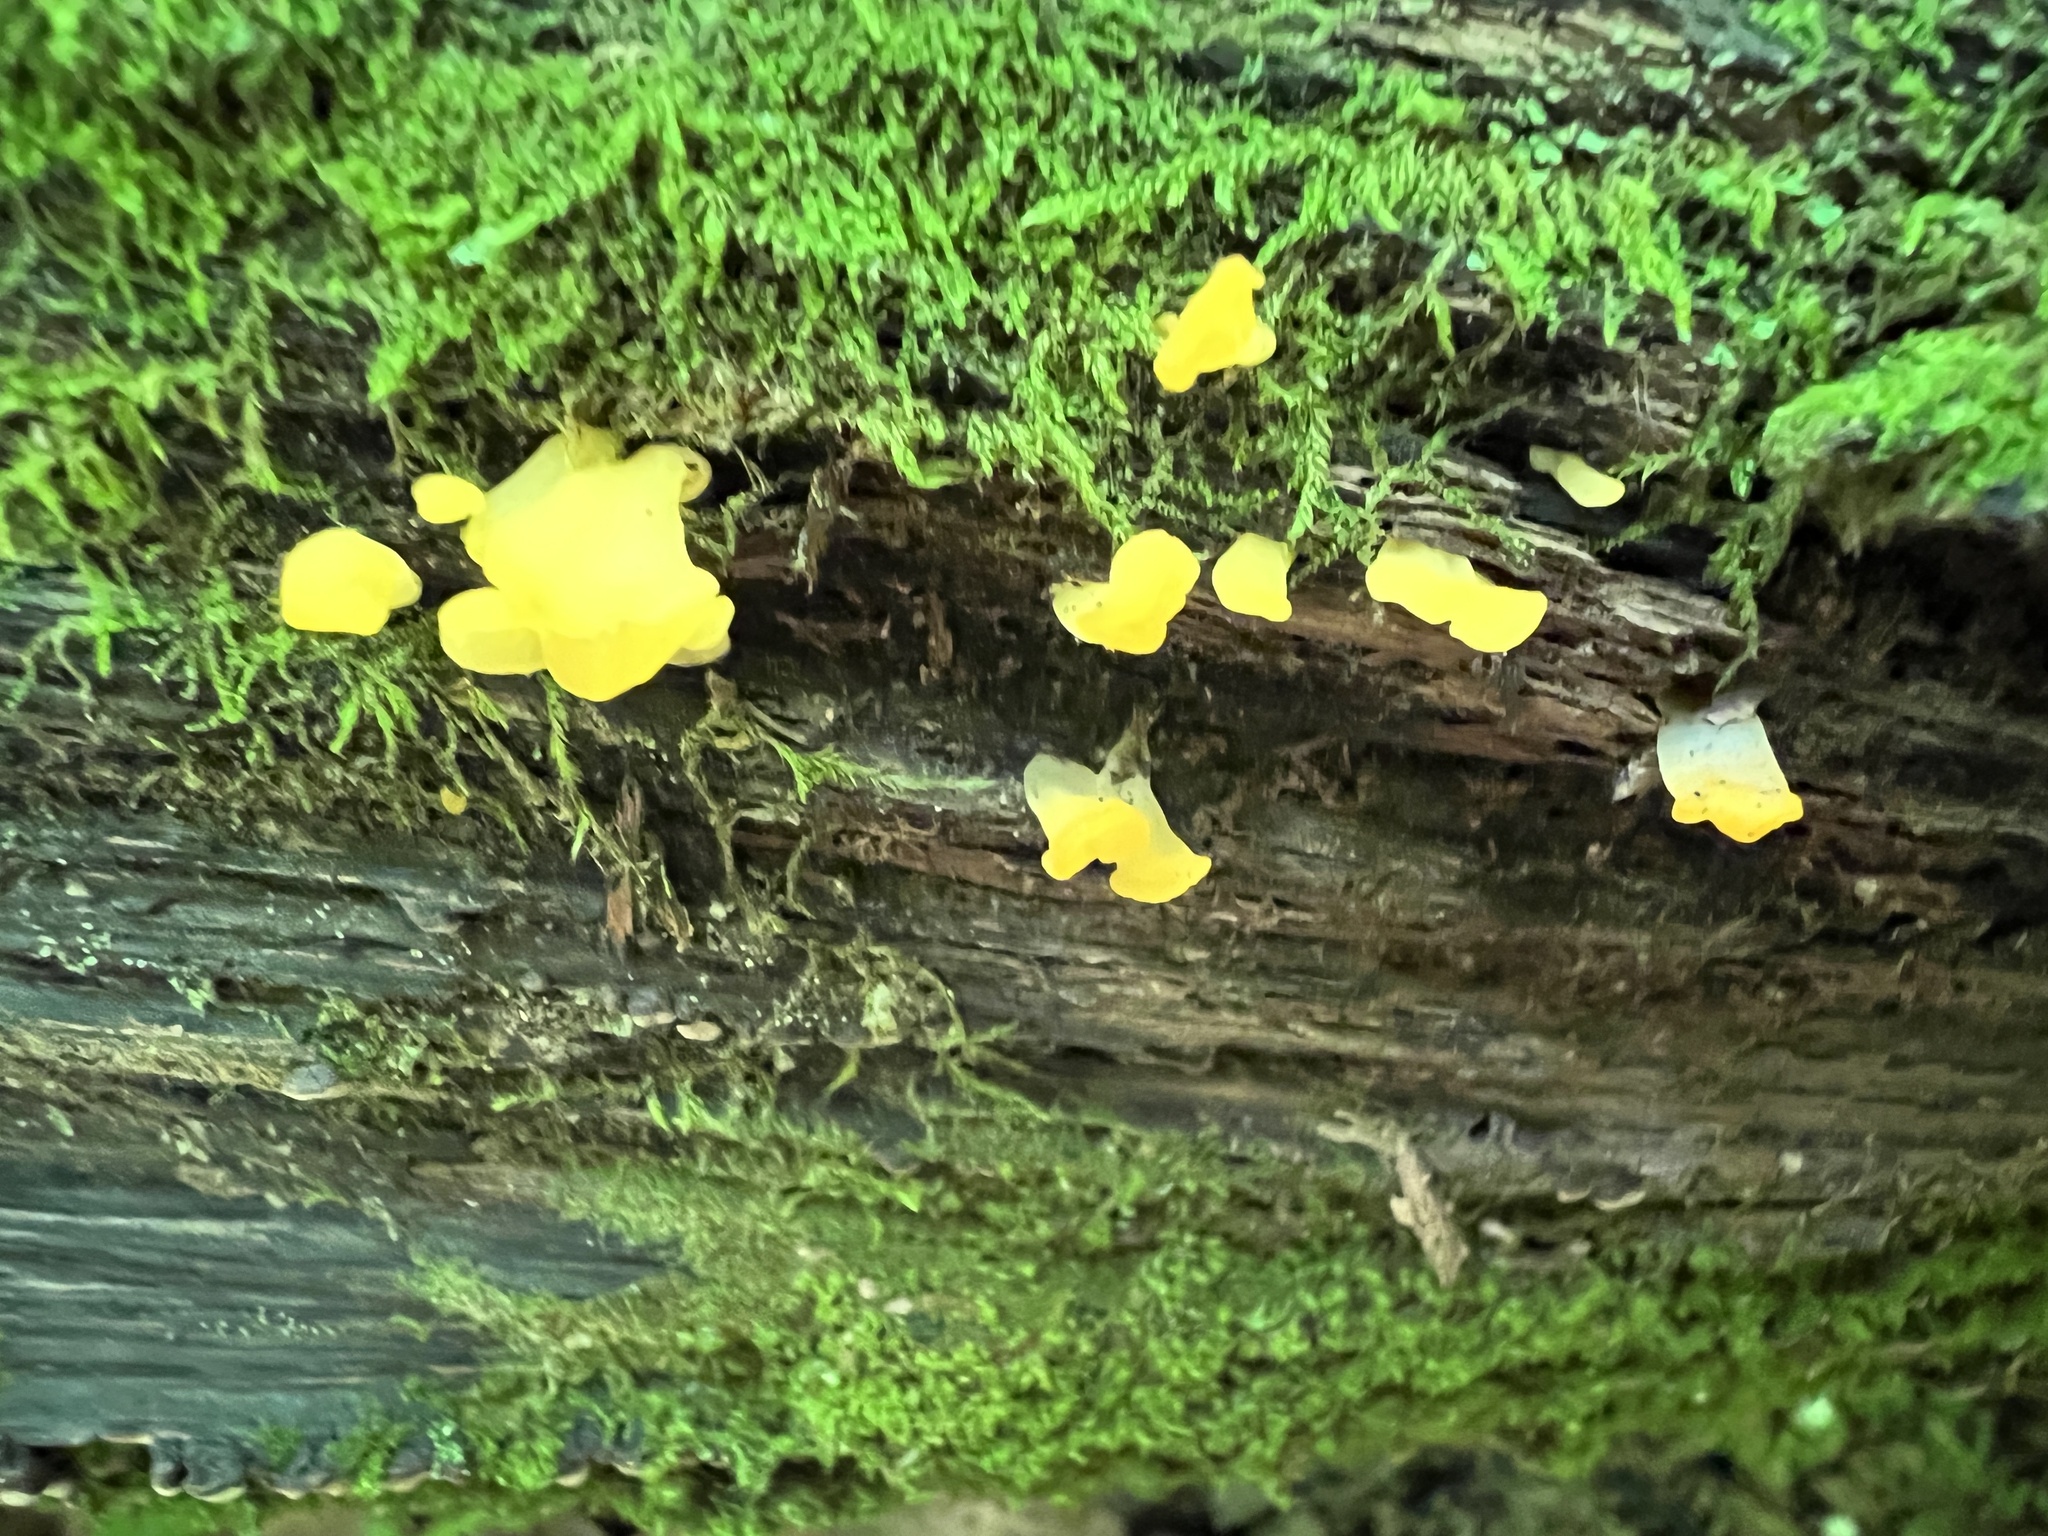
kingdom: Fungi
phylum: Basidiomycota
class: Dacrymycetes
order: Dacrymycetales
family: Dacrymycetaceae
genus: Dacrymyces
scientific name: Dacrymyces spathularius
